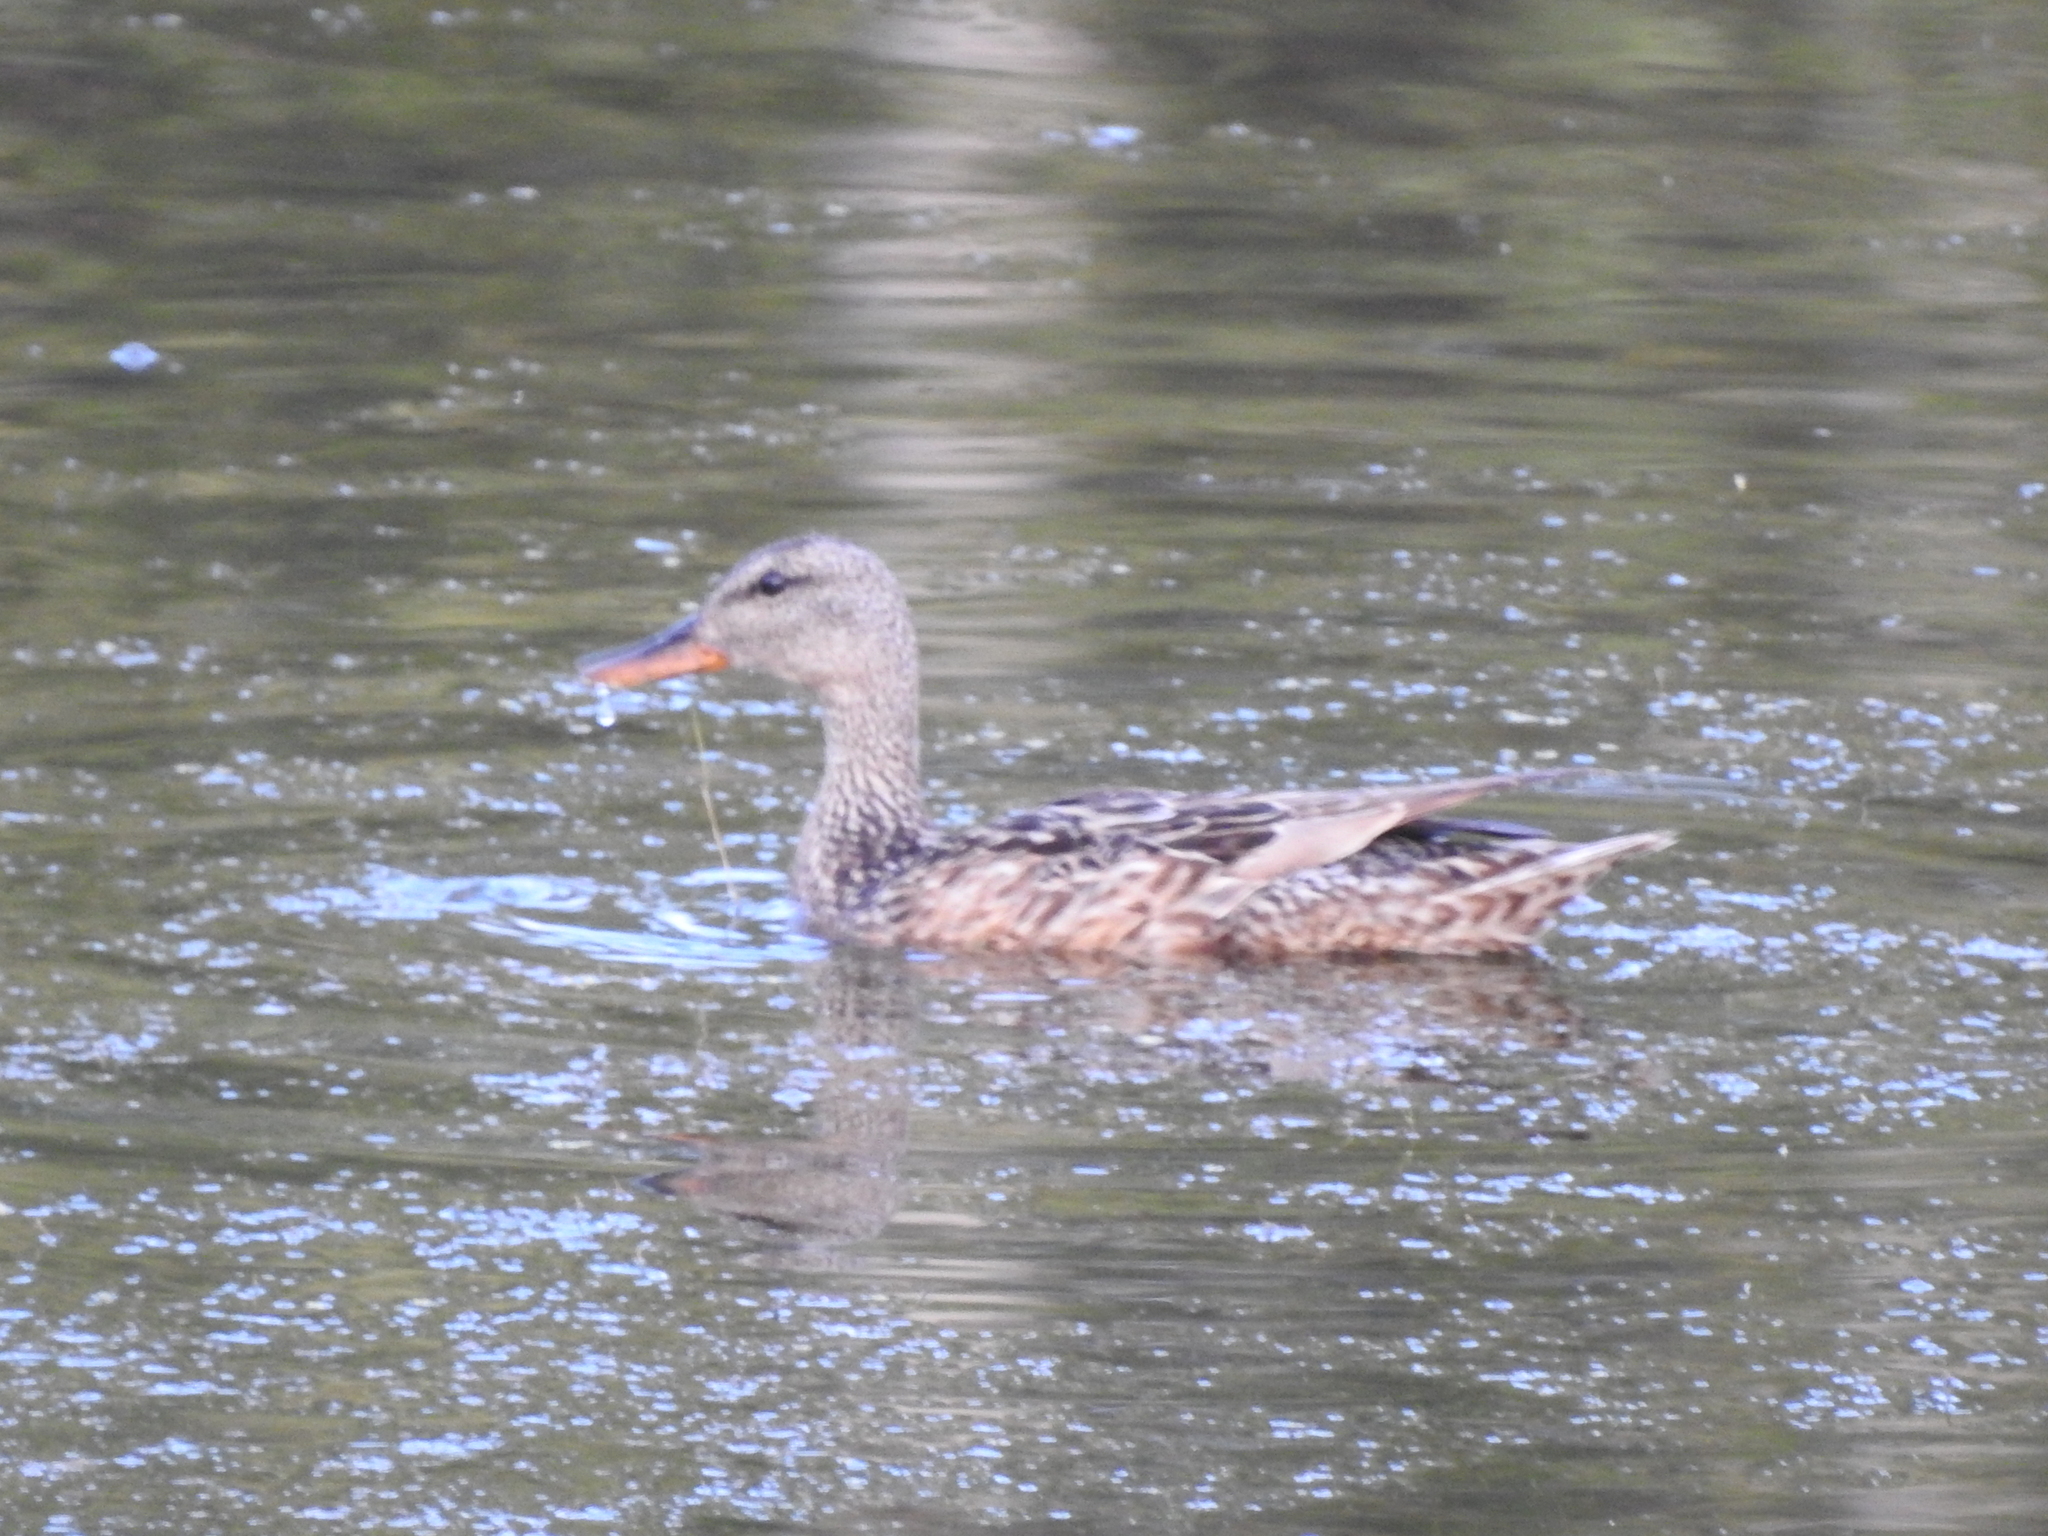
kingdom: Animalia
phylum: Chordata
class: Aves
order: Anseriformes
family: Anatidae
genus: Mareca
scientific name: Mareca strepera
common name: Gadwall
